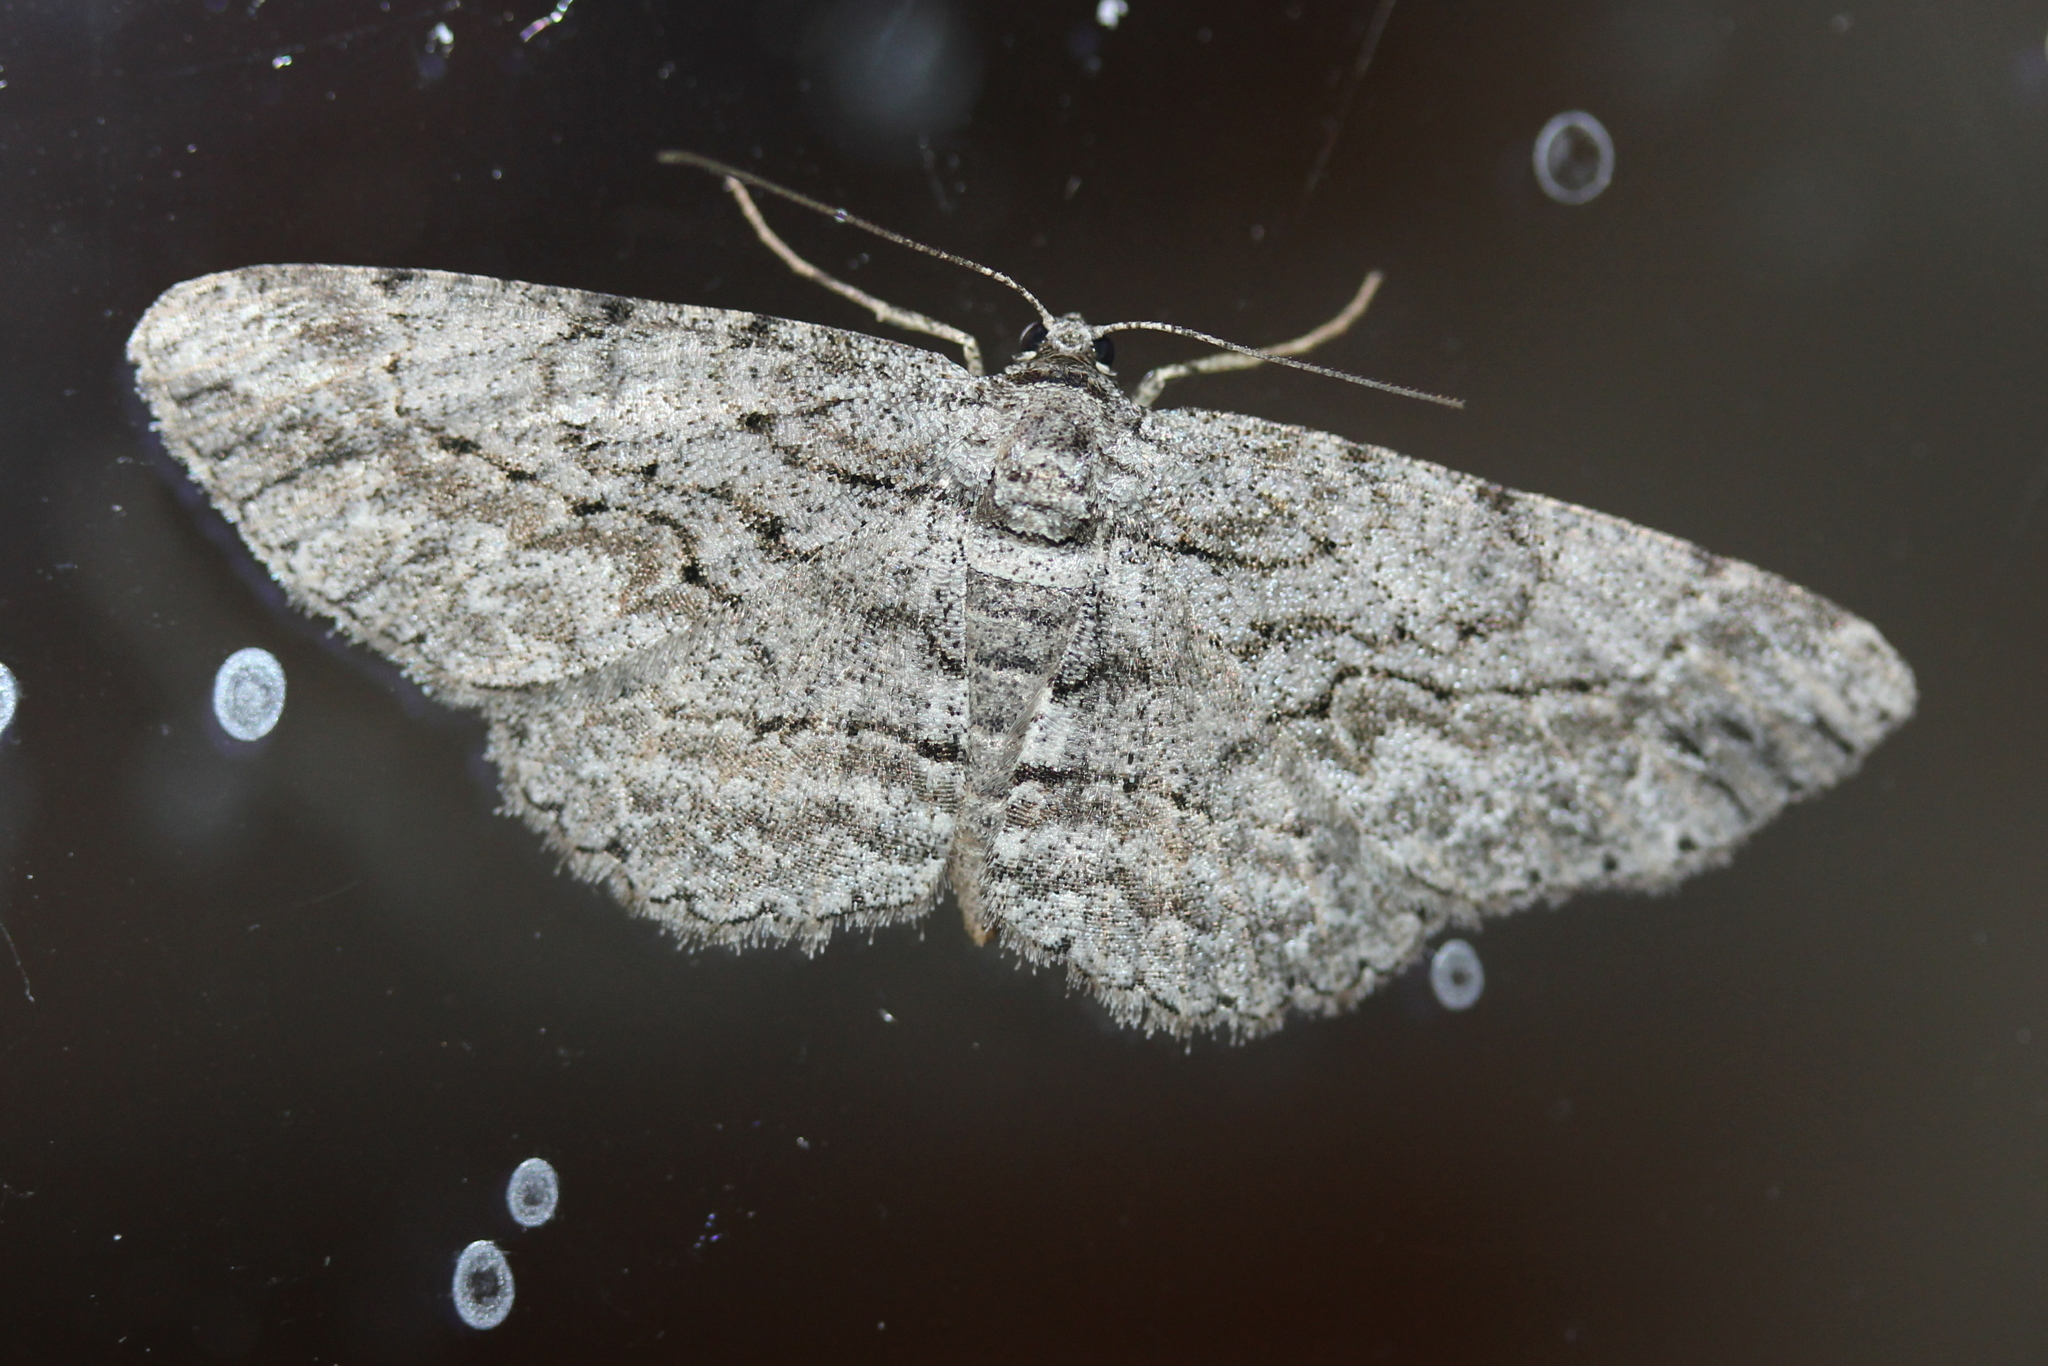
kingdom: Animalia
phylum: Arthropoda
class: Insecta
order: Lepidoptera
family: Geometridae
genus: Anavitrinella
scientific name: Anavitrinella pampinaria
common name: Common gray
